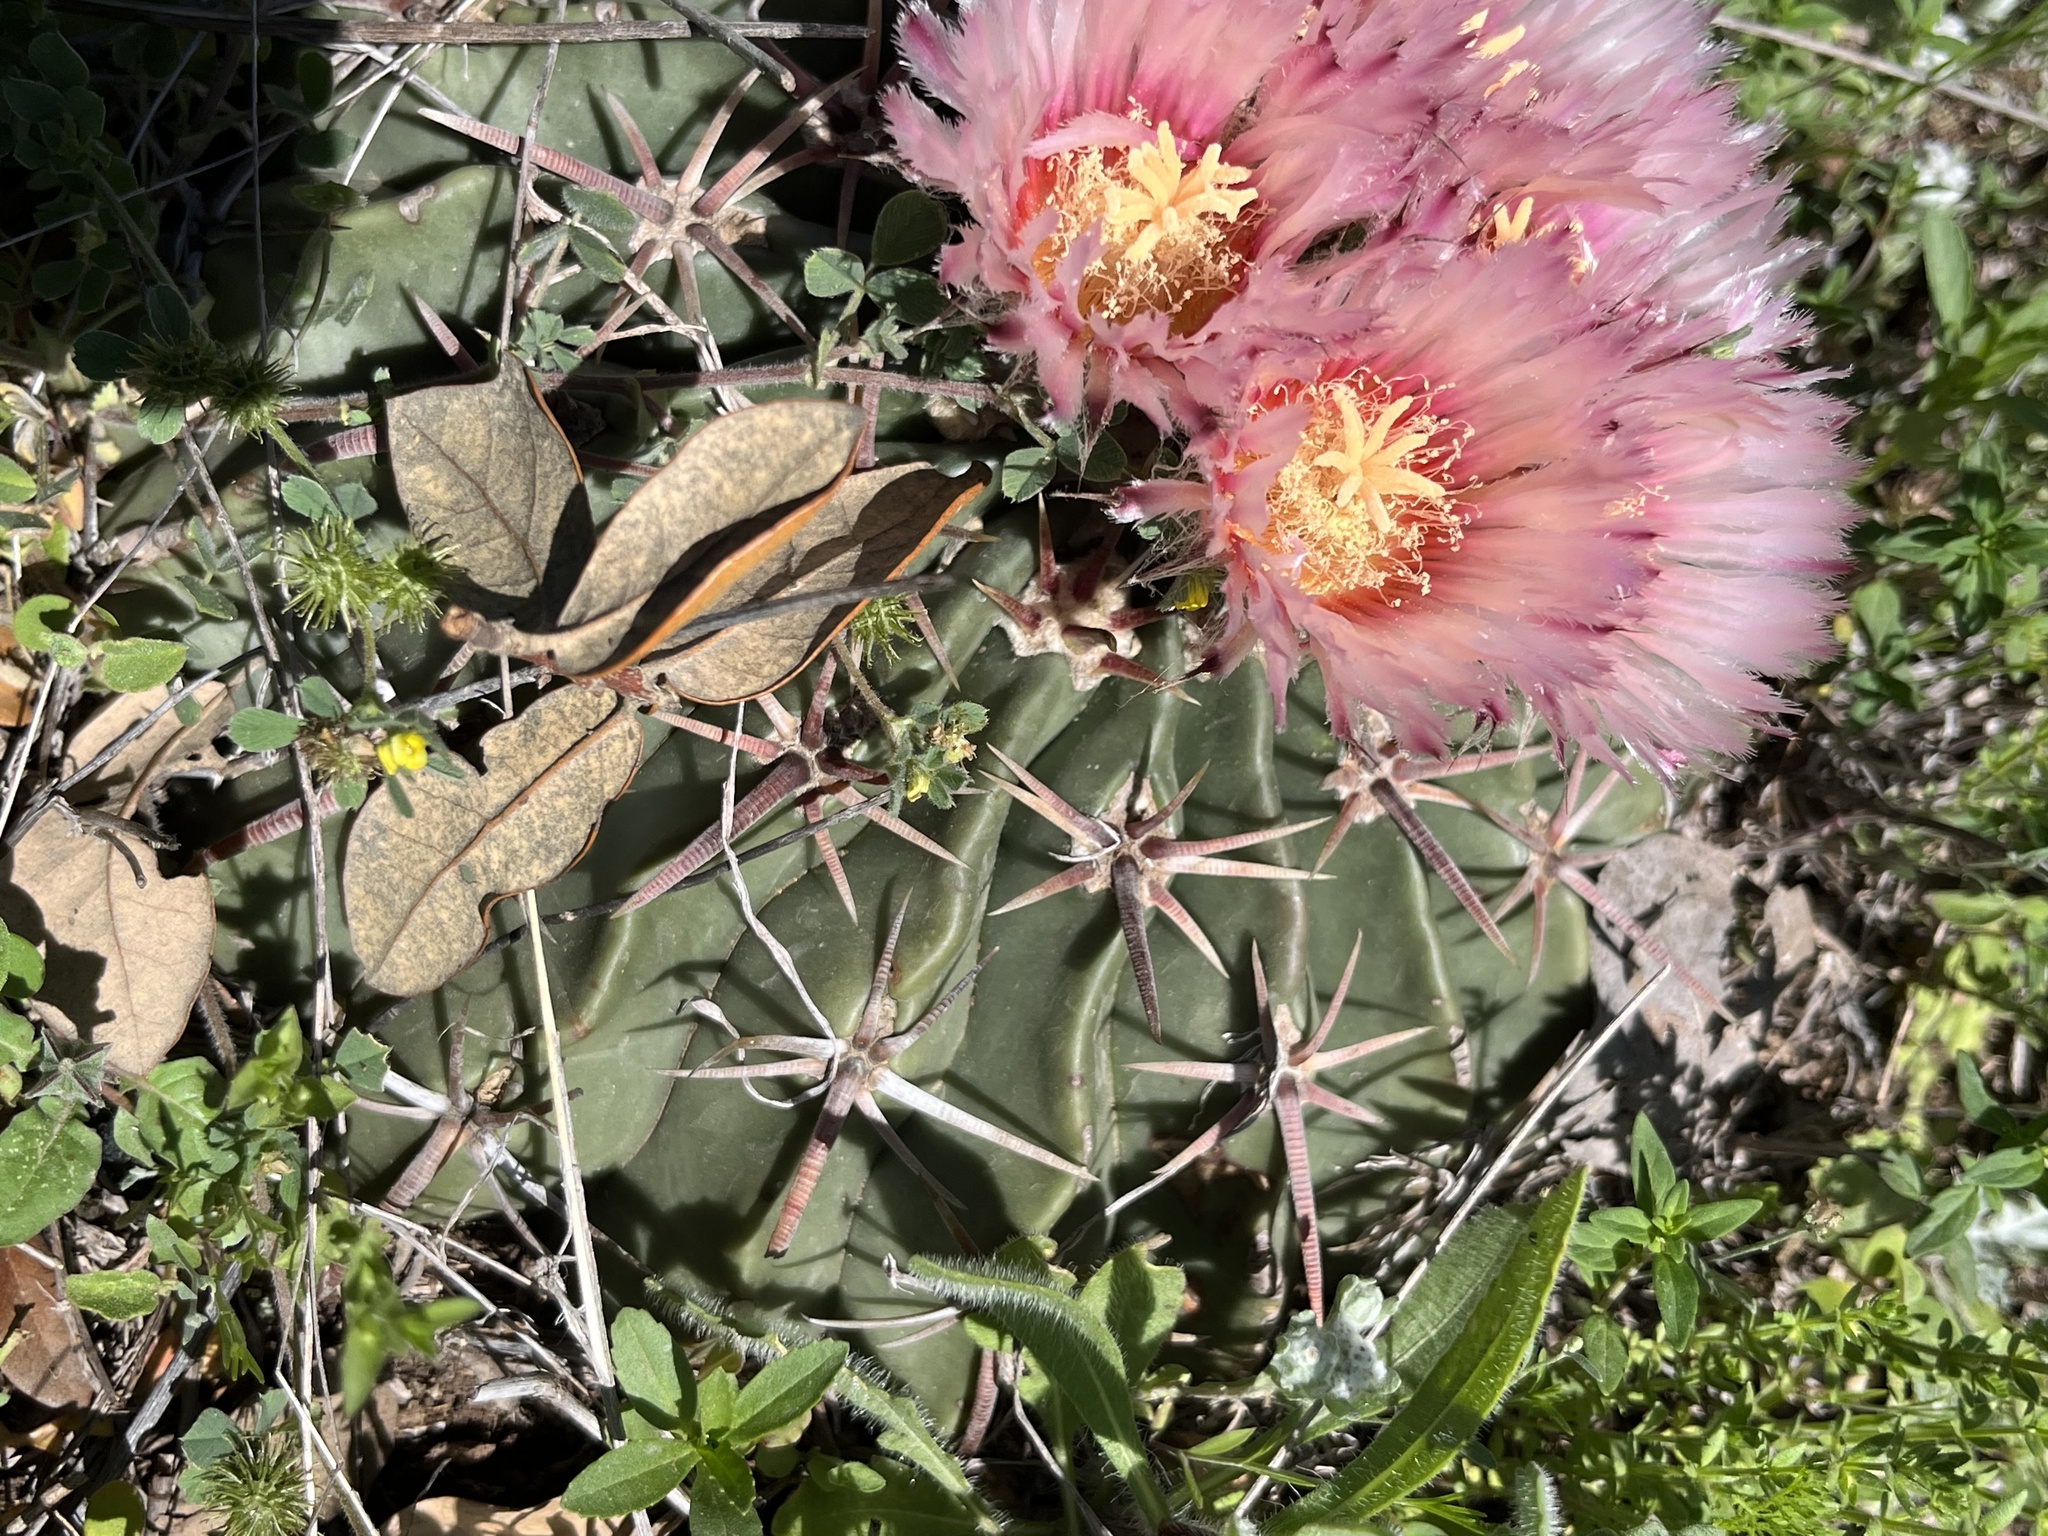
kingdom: Plantae
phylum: Tracheophyta
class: Magnoliopsida
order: Caryophyllales
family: Cactaceae
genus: Echinocactus
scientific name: Echinocactus texensis
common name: Devil's pincushion
